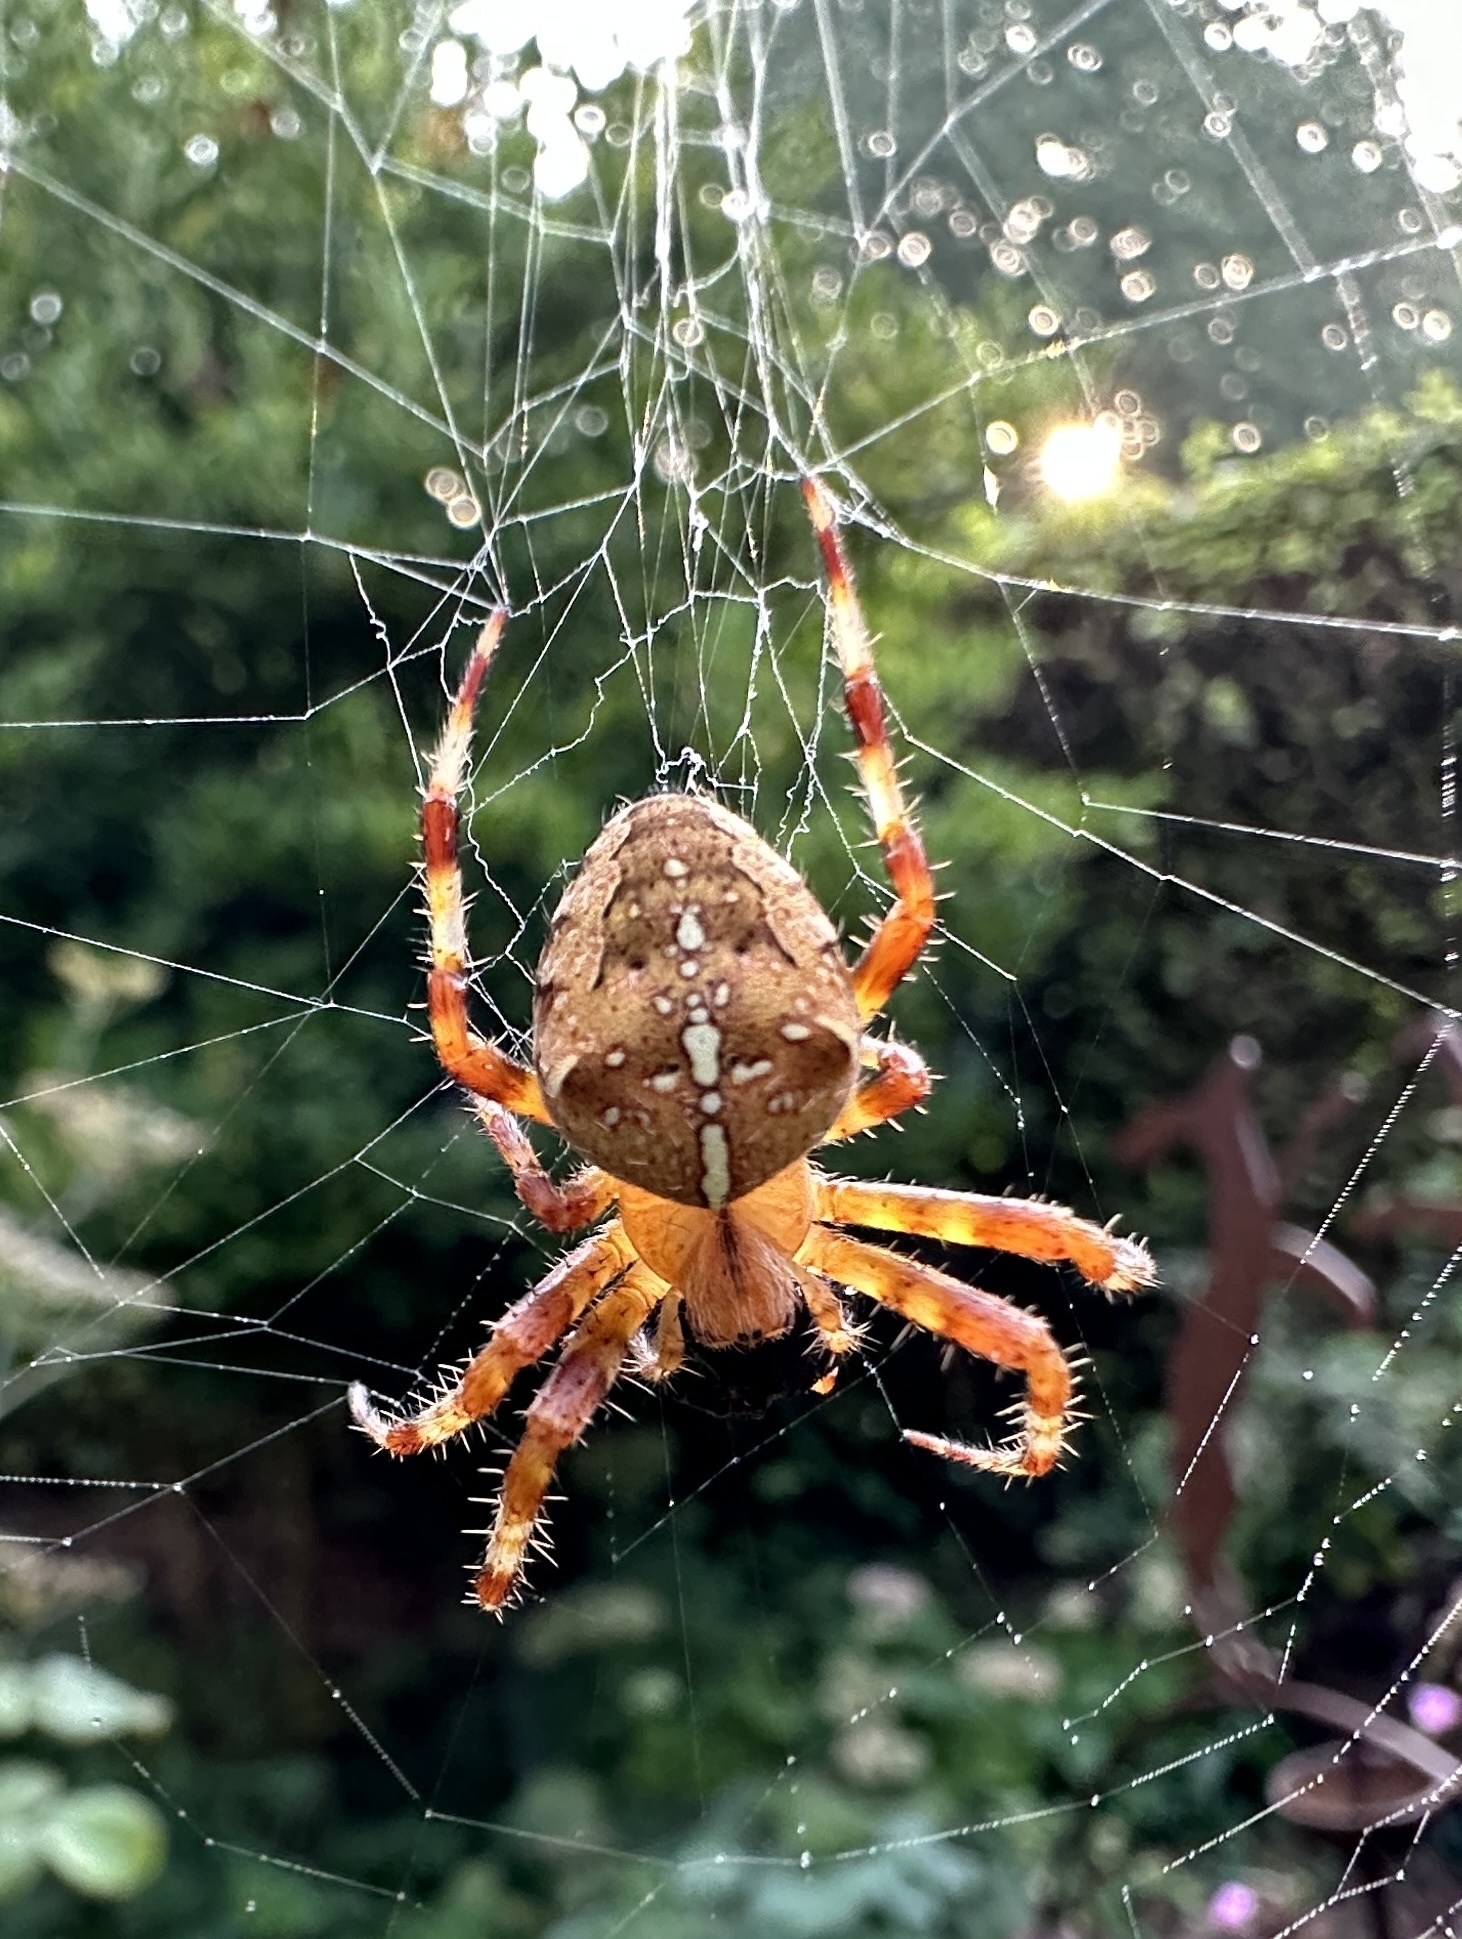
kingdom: Animalia
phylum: Arthropoda
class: Arachnida
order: Araneae
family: Araneidae
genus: Araneus
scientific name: Araneus diadematus
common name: Cross orbweaver
